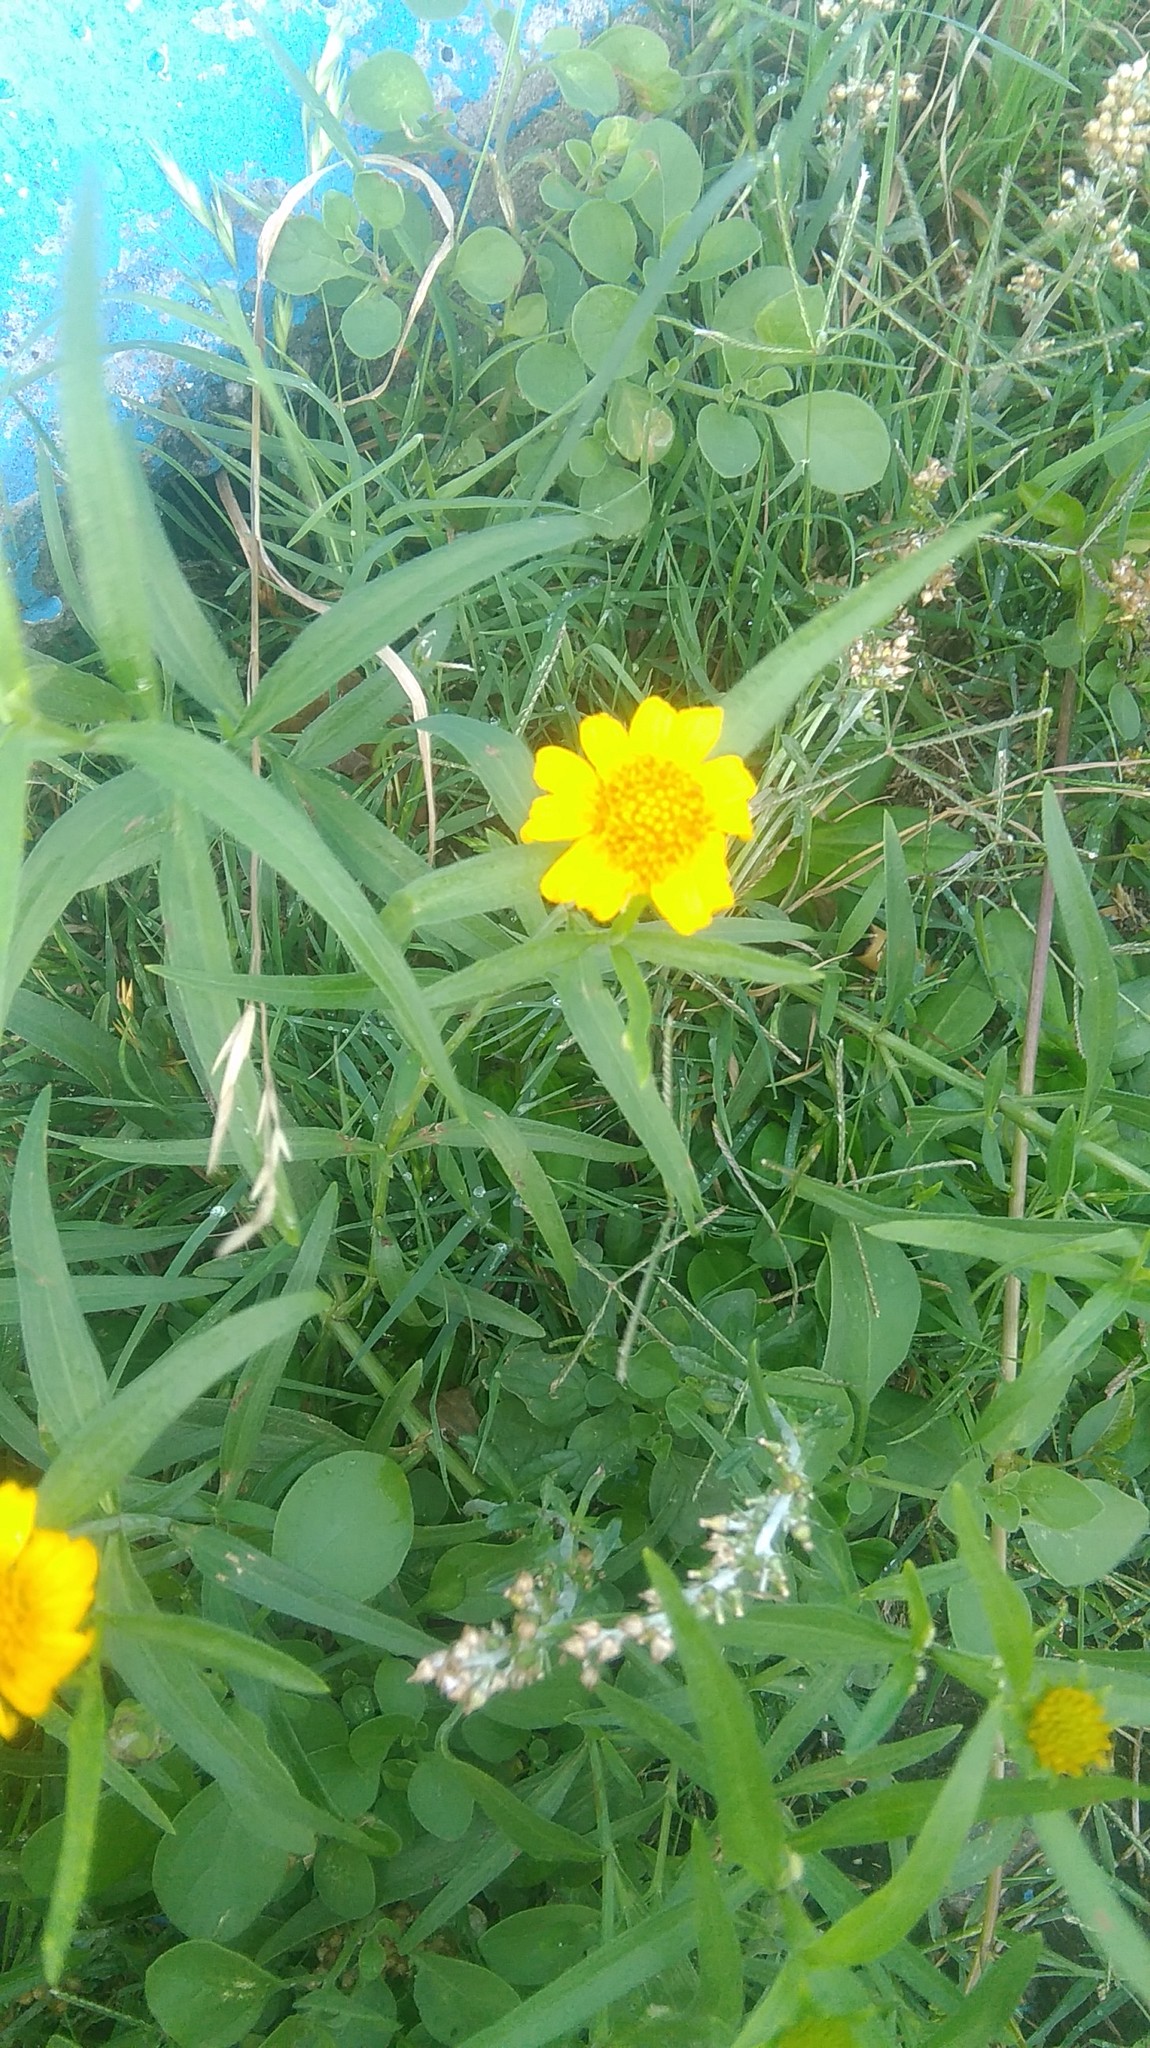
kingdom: Plantae
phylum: Tracheophyta
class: Magnoliopsida
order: Asterales
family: Asteraceae
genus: Pascalia
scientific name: Pascalia glauca
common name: Beach creeping oxeye
